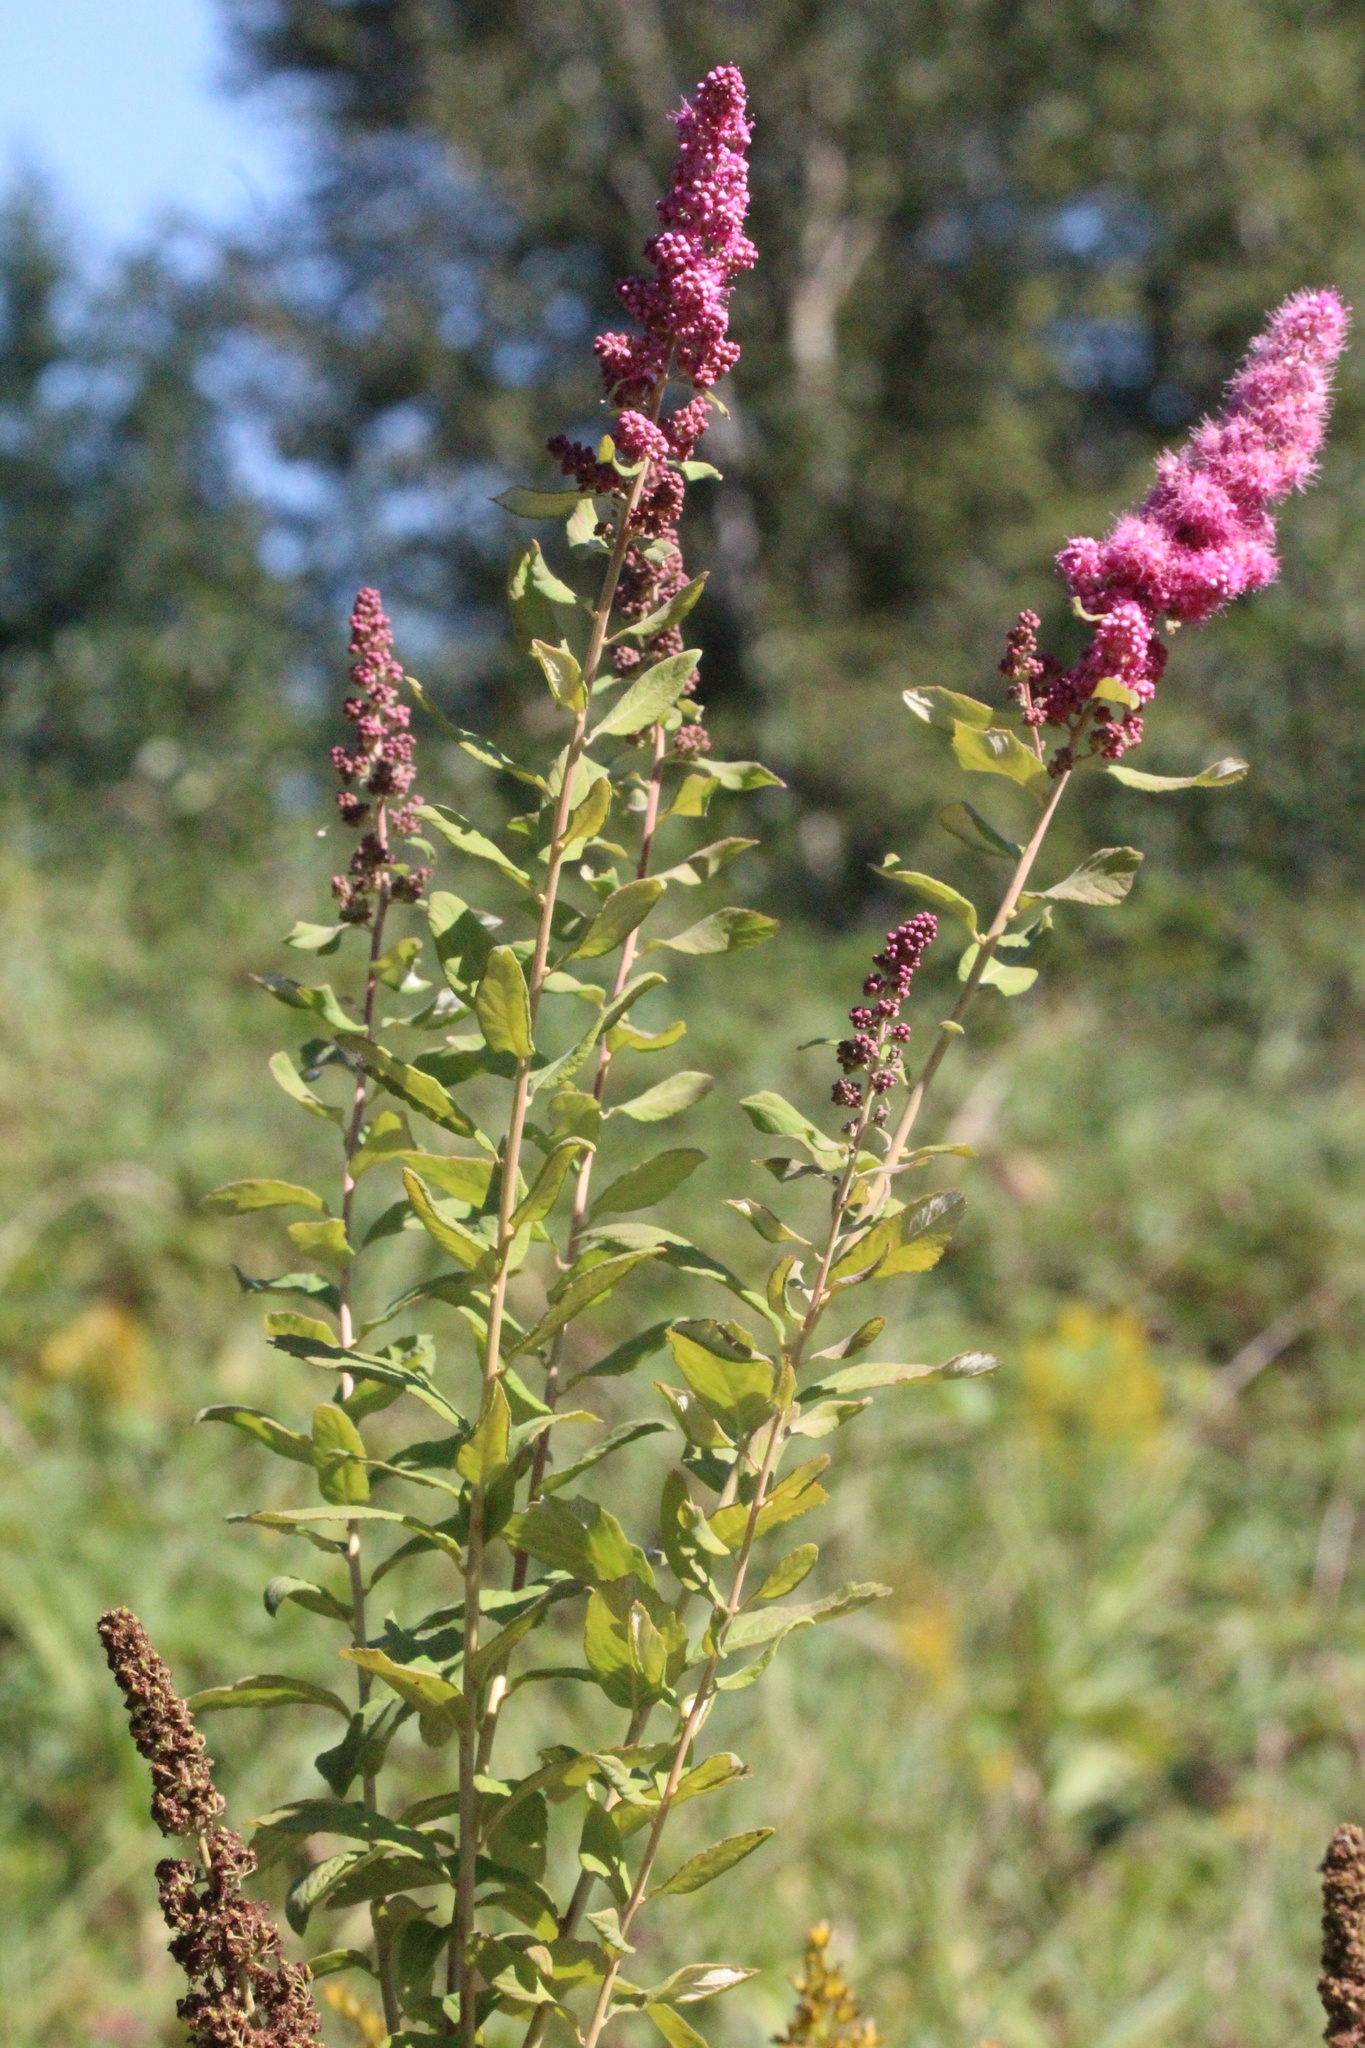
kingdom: Plantae
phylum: Tracheophyta
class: Magnoliopsida
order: Rosales
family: Rosaceae
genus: Spiraea
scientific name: Spiraea douglasii
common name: Steeplebush
